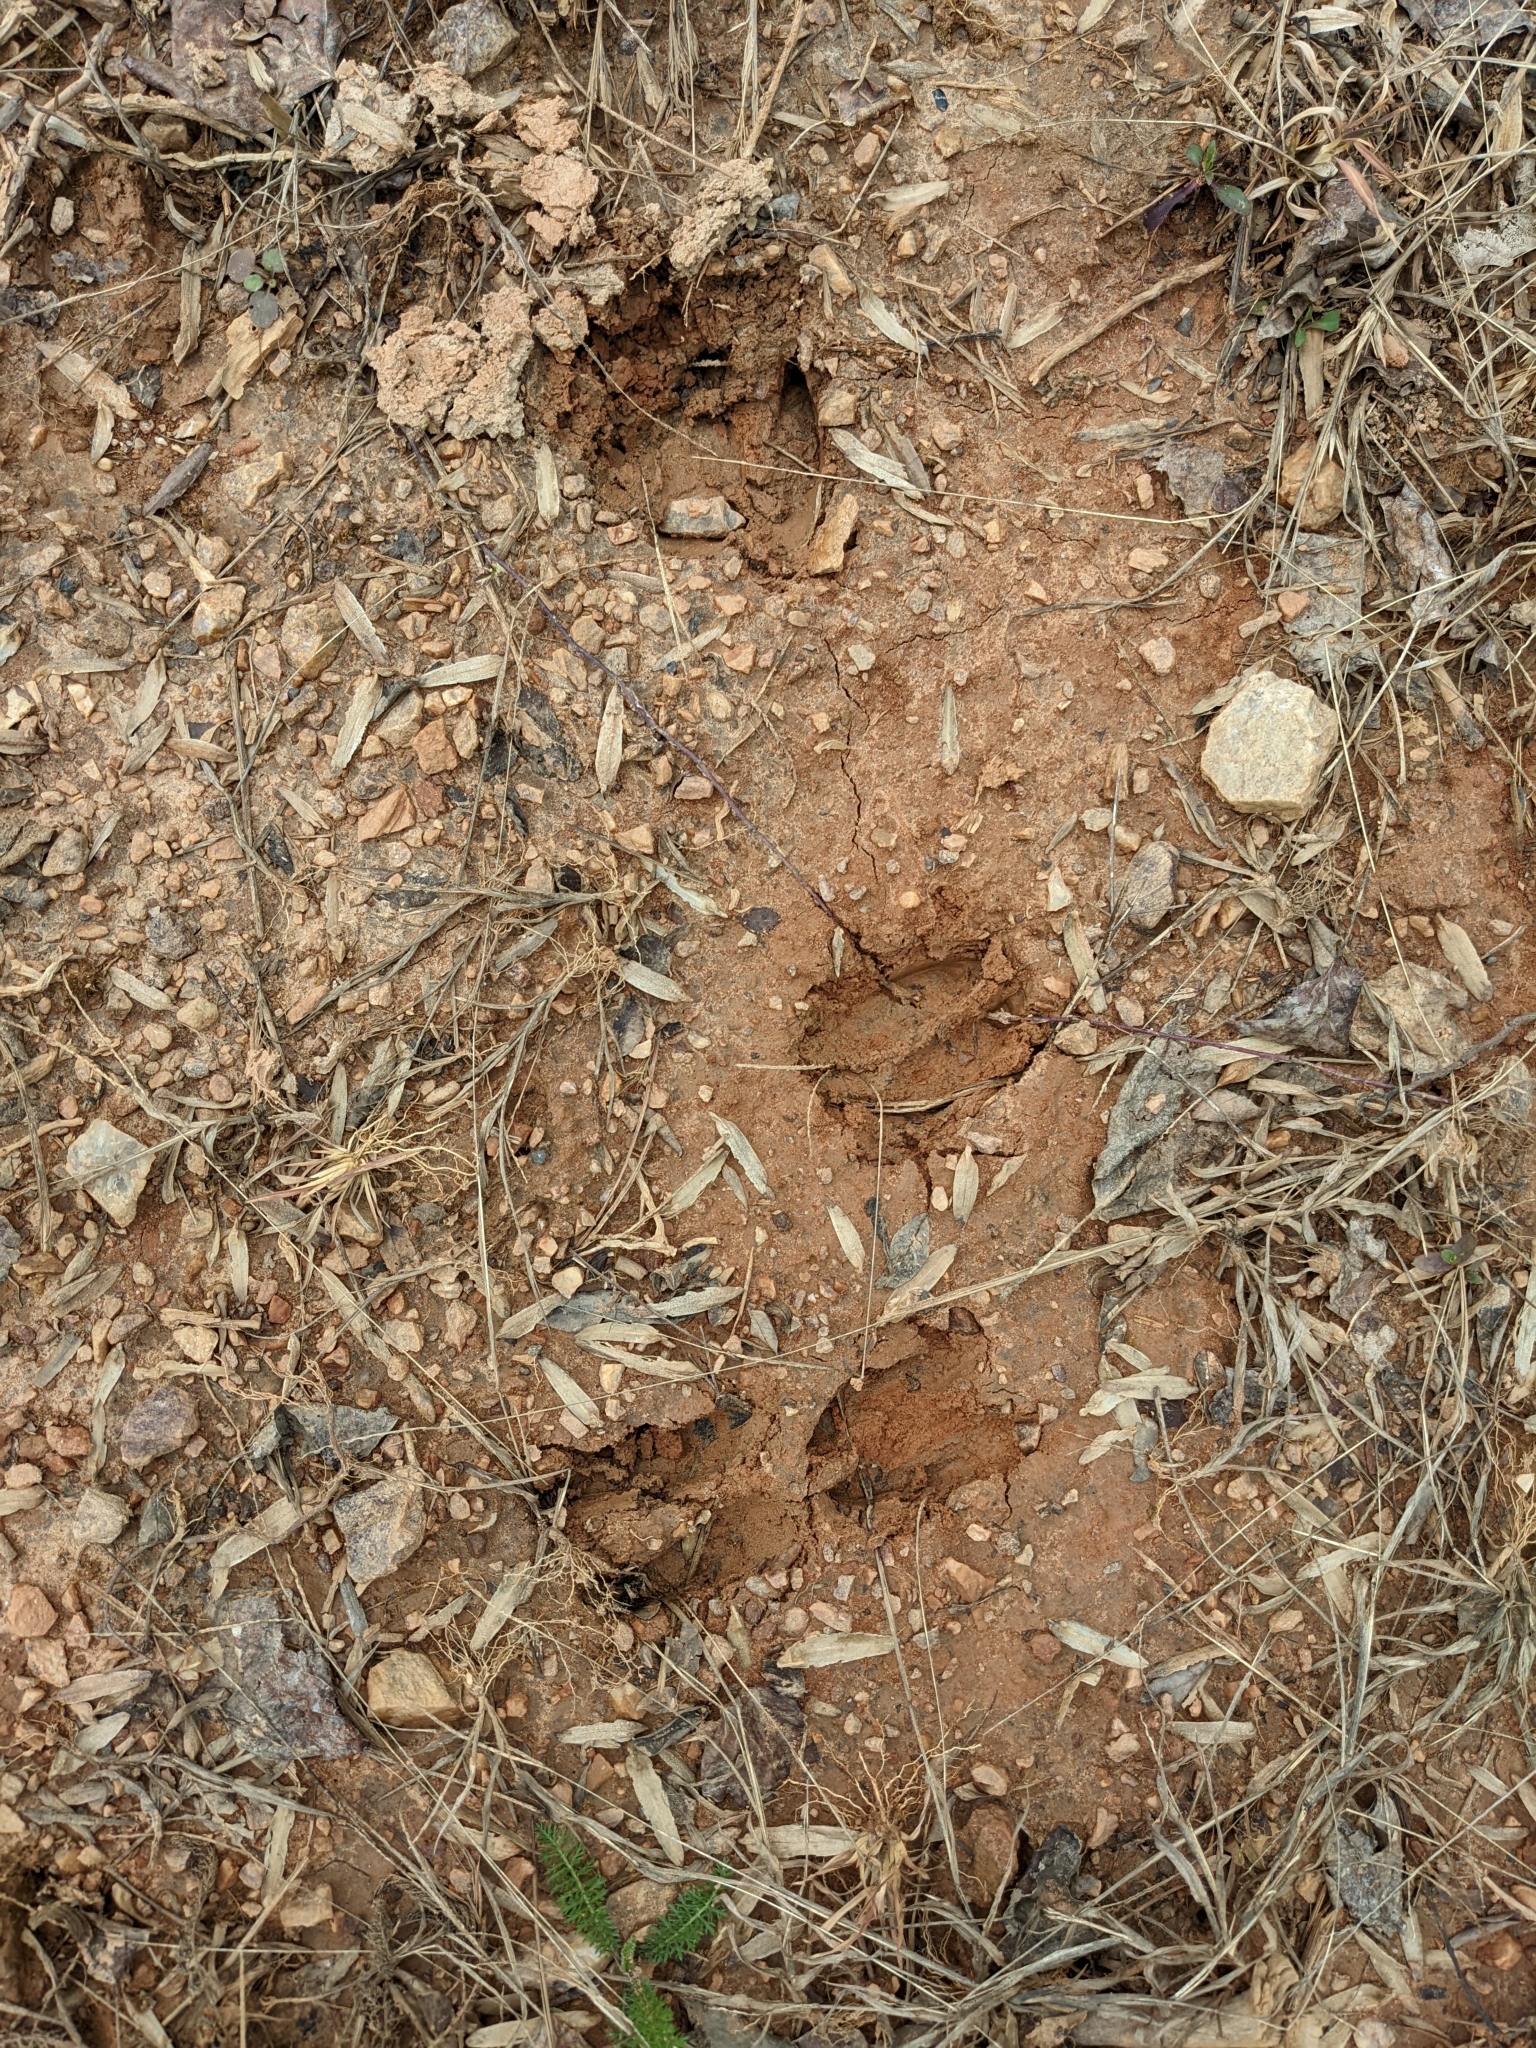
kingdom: Animalia
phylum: Chordata
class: Mammalia
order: Artiodactyla
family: Cervidae
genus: Odocoileus
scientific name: Odocoileus virginianus
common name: White-tailed deer
